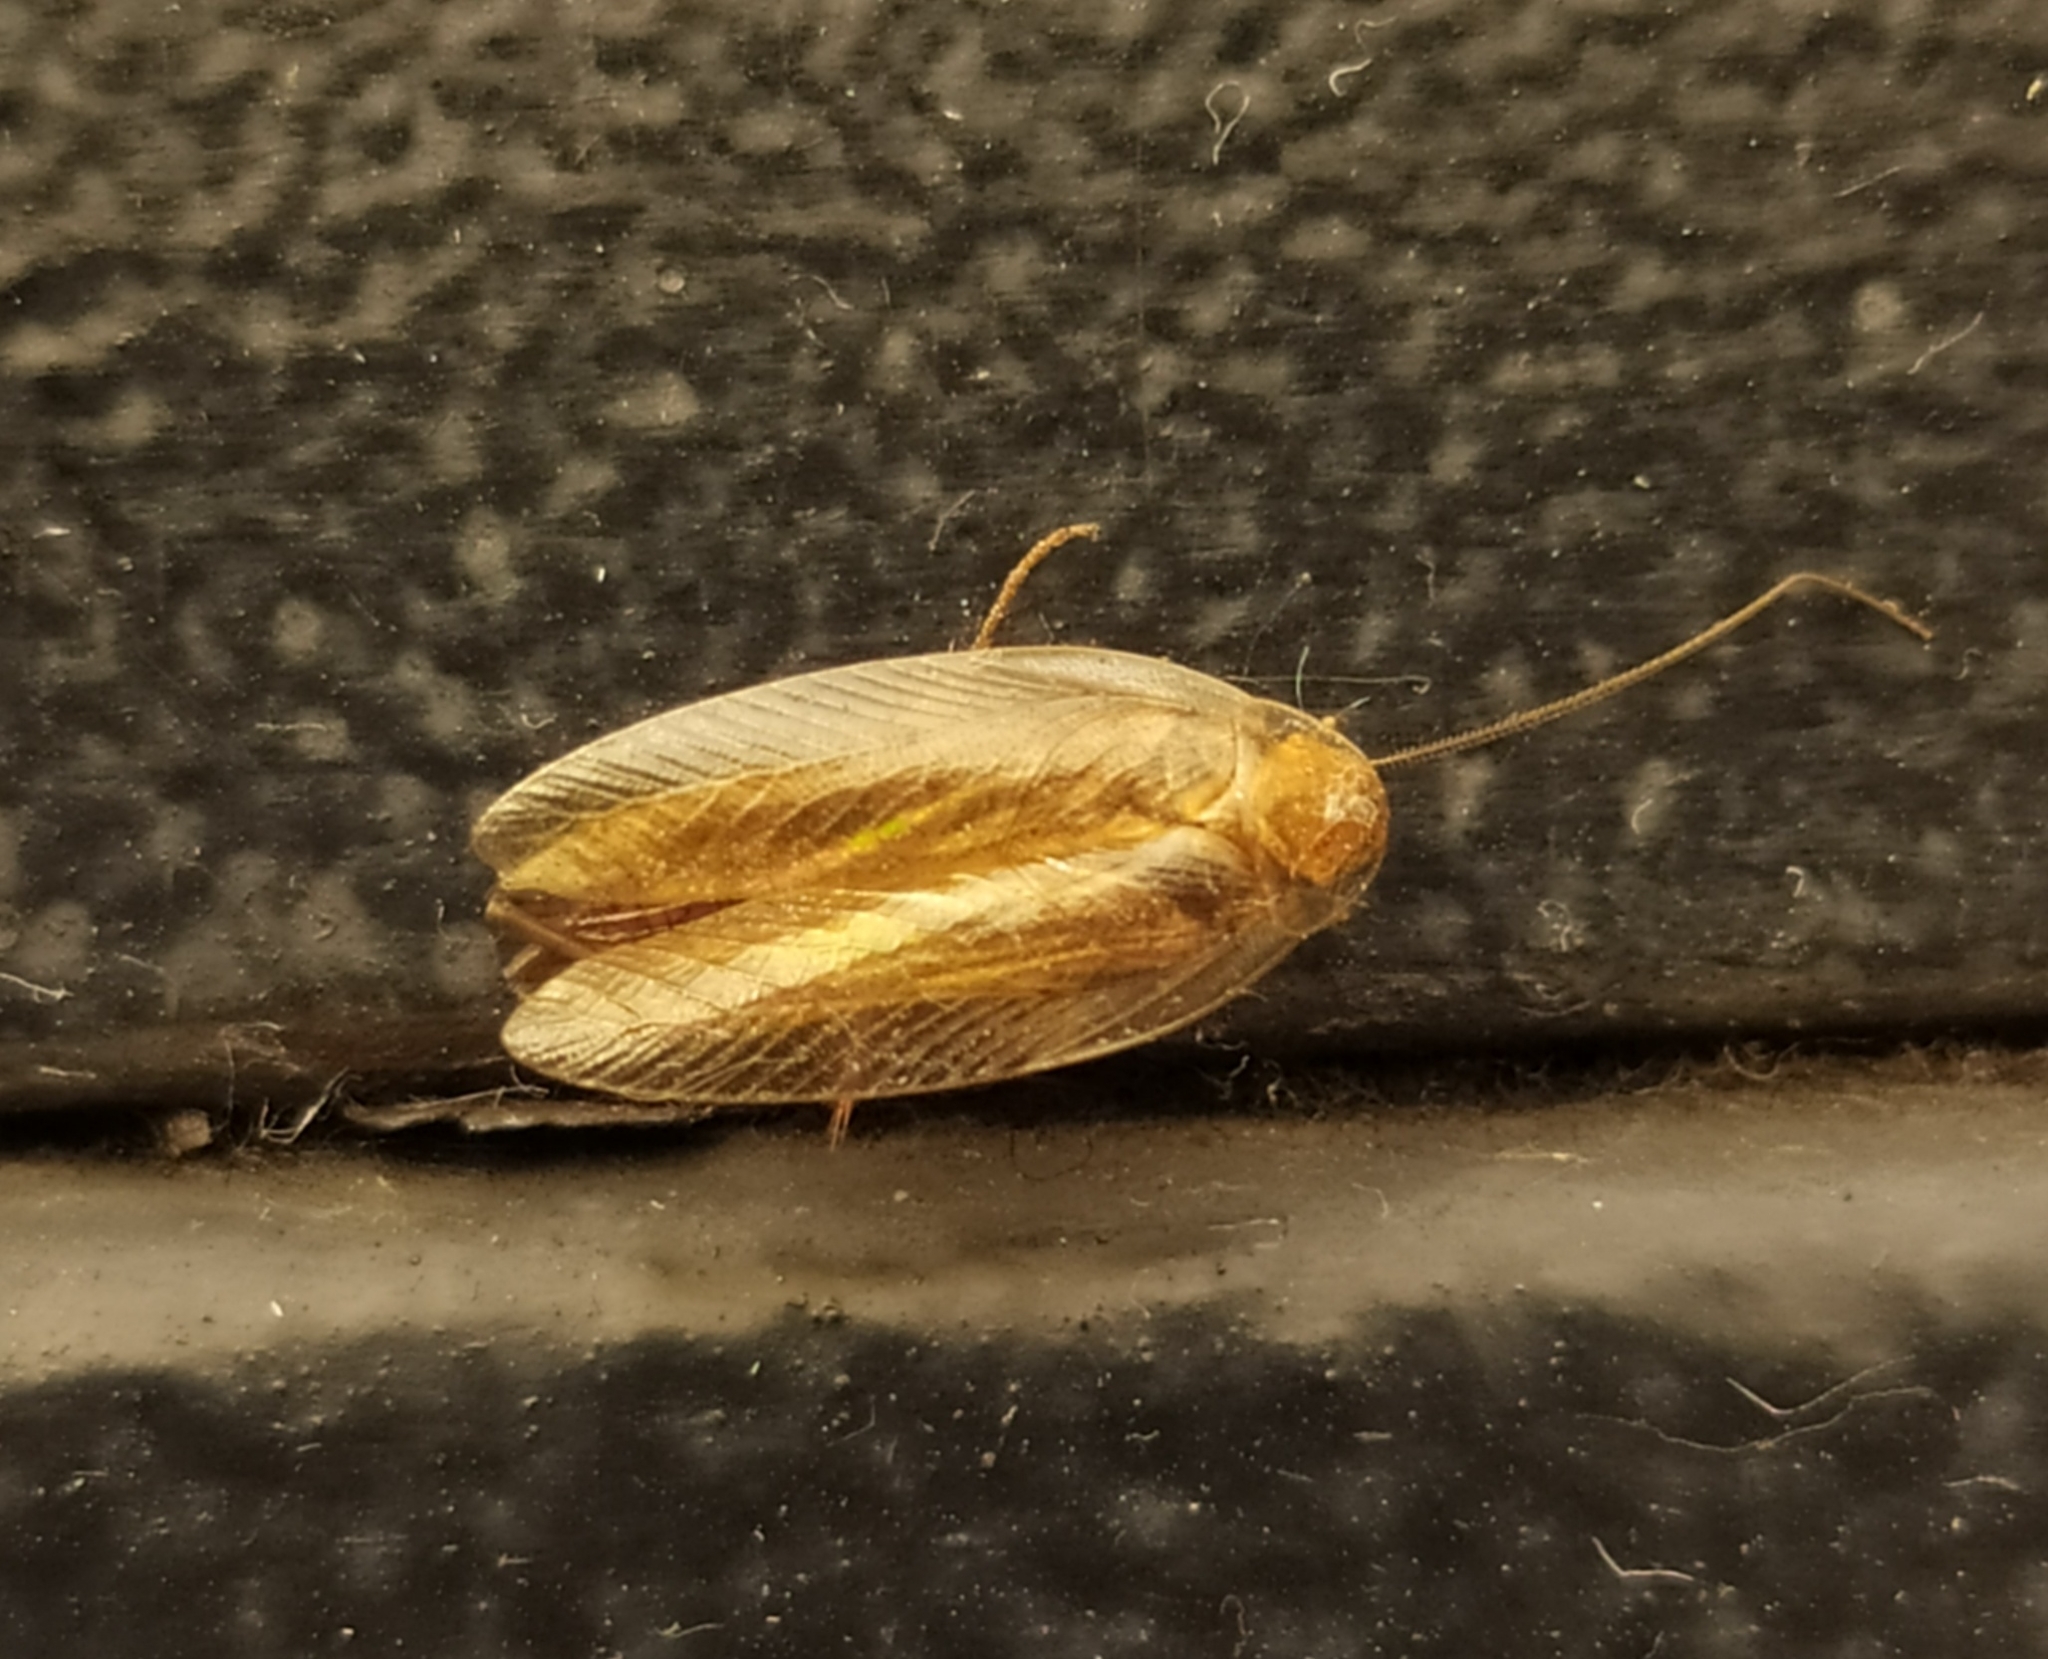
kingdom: Animalia
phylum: Arthropoda
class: Insecta
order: Blattodea
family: Ectobiidae
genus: Ectobius
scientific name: Ectobius vittiventris
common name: Garden cockroach
